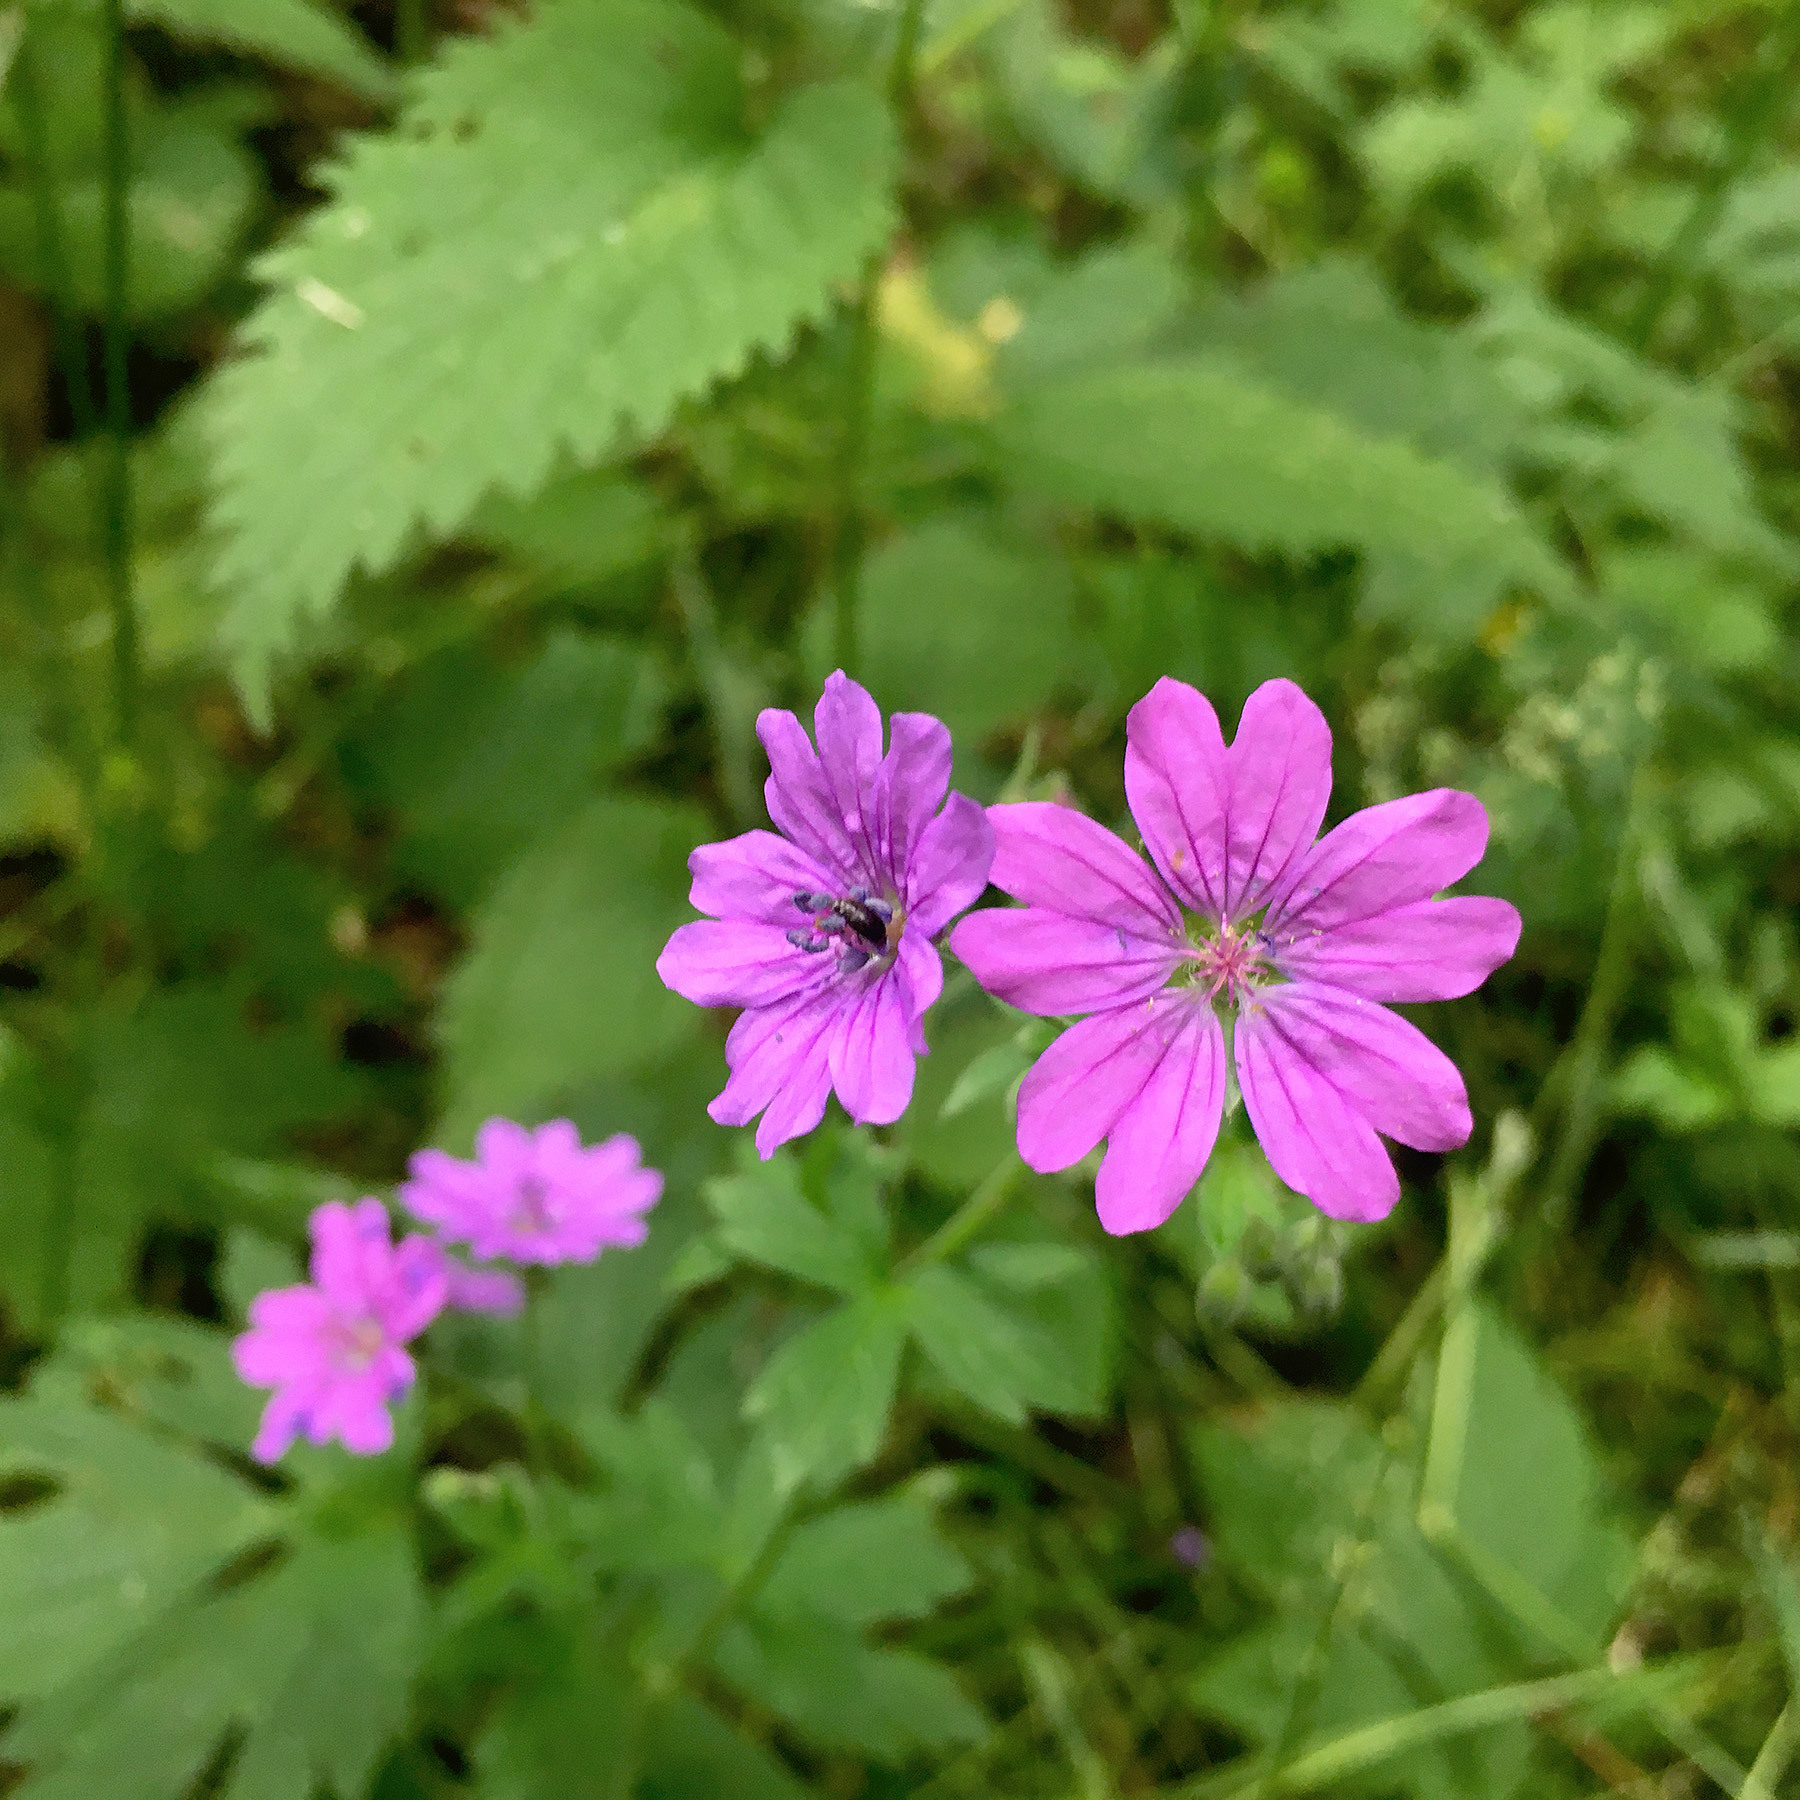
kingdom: Plantae
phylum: Tracheophyta
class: Magnoliopsida
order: Geraniales
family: Geraniaceae
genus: Geranium
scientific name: Geranium pyrenaicum
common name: Hedgerow crane's-bill
